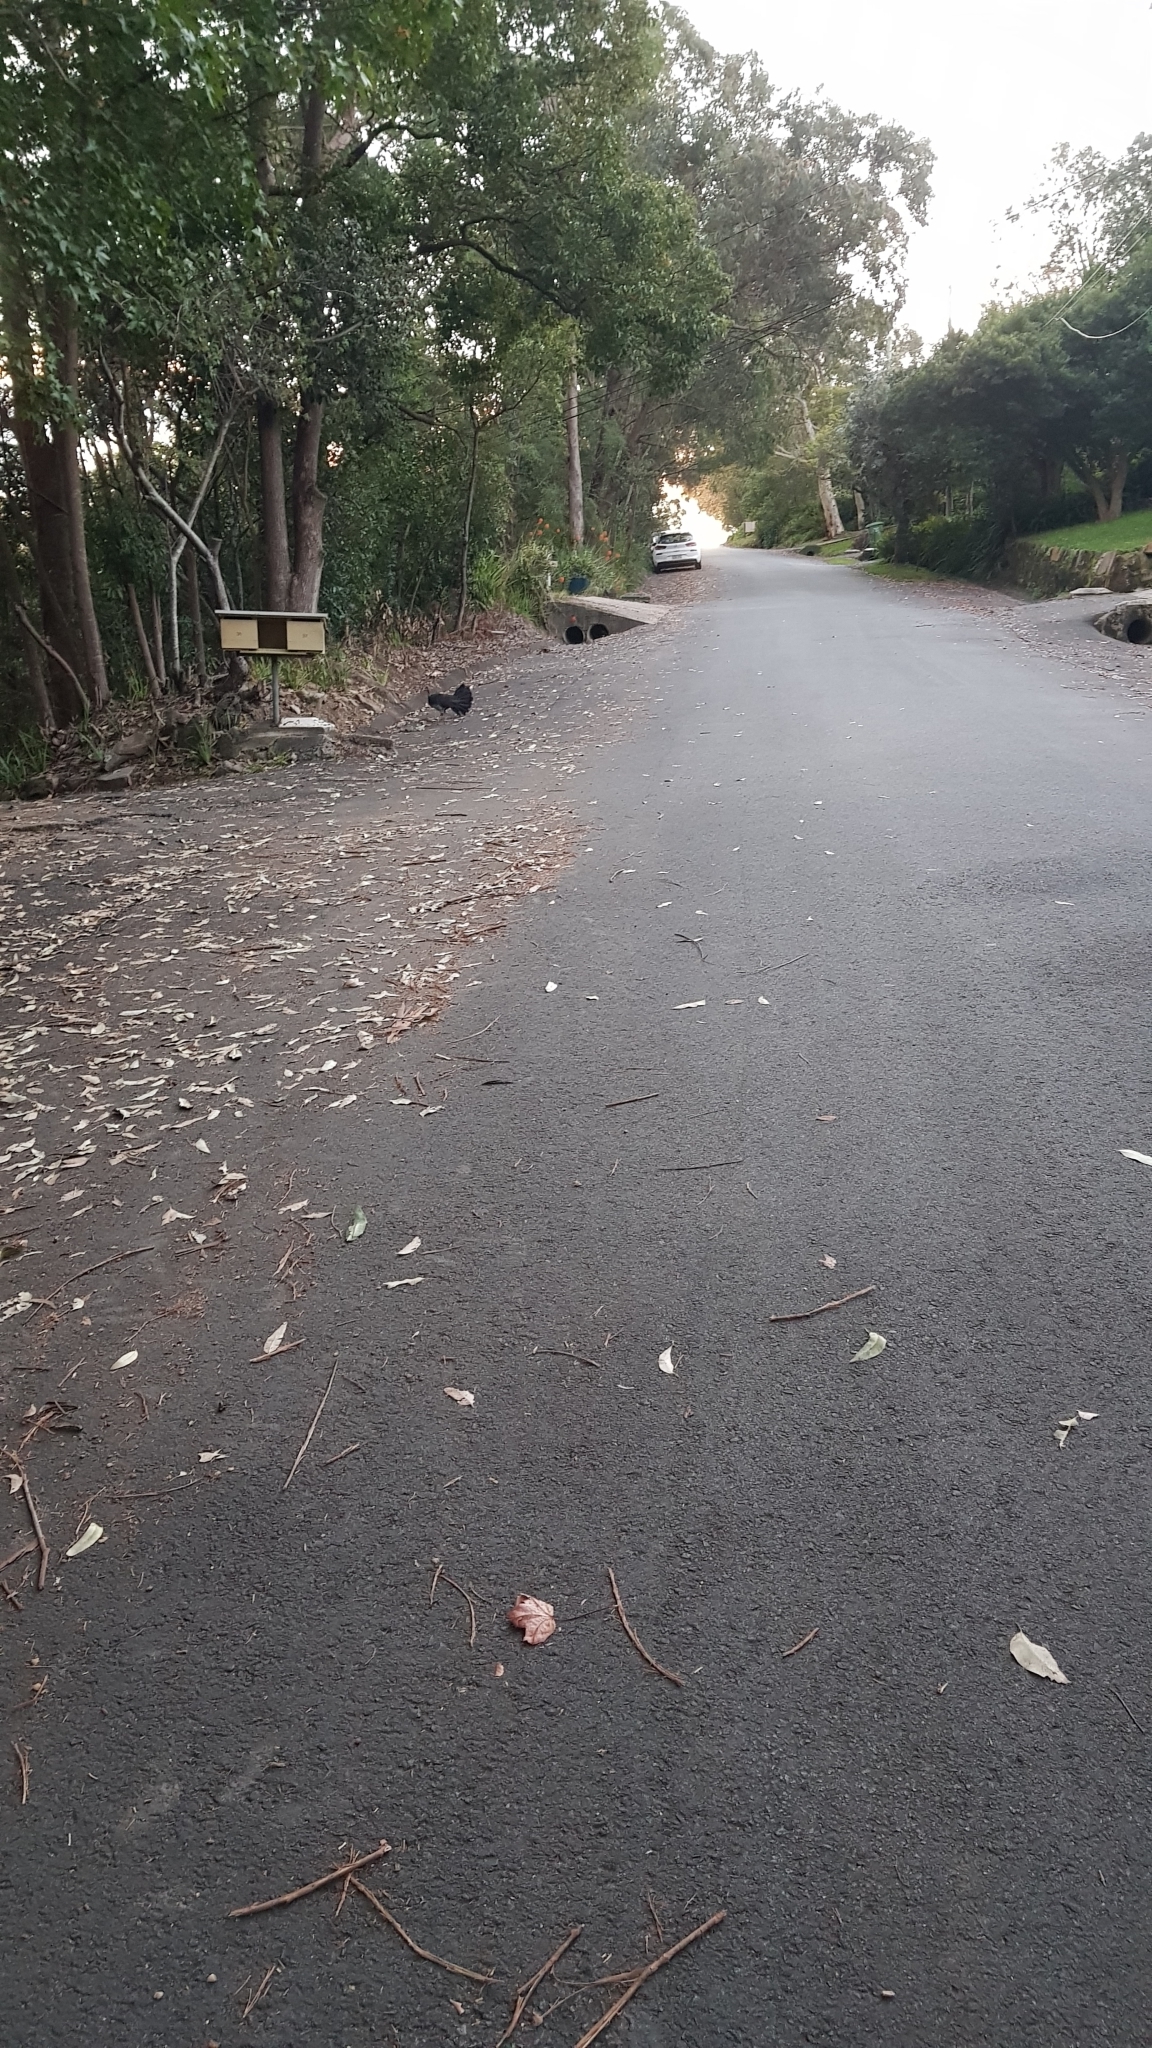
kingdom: Animalia
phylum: Chordata
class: Aves
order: Galliformes
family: Megapodiidae
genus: Alectura
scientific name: Alectura lathami
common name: Australian brushturkey
